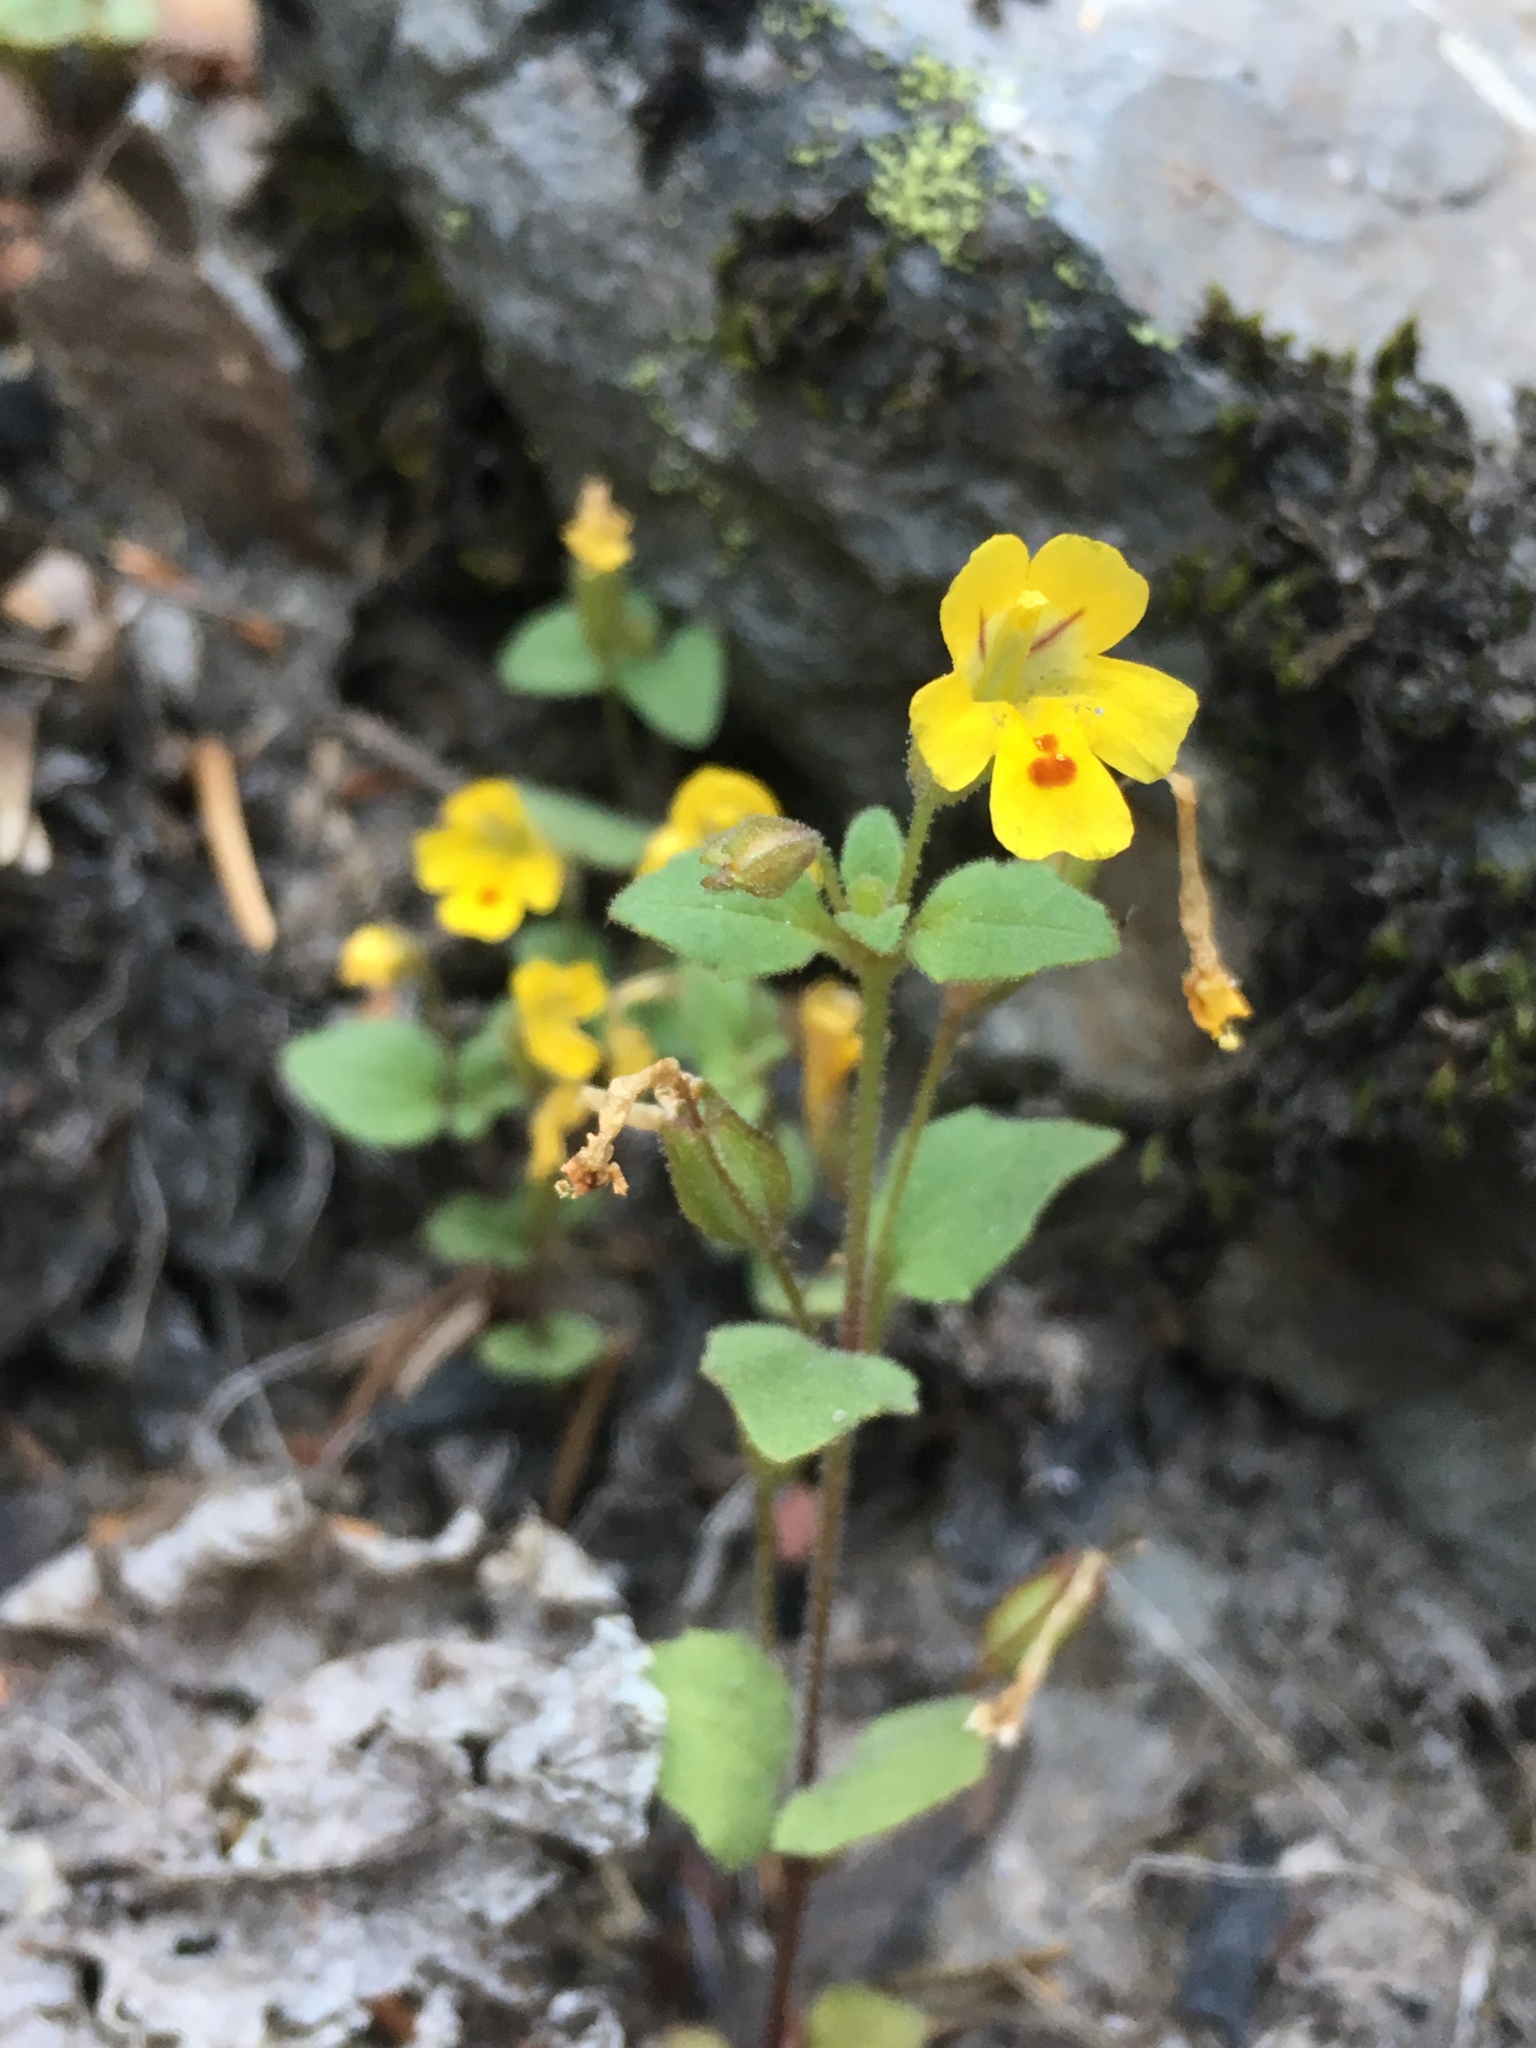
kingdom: Plantae
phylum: Tracheophyta
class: Magnoliopsida
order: Lamiales
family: Phrymaceae
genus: Erythranthe
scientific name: Erythranthe alsinoides
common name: Chickweed monkeyflower
